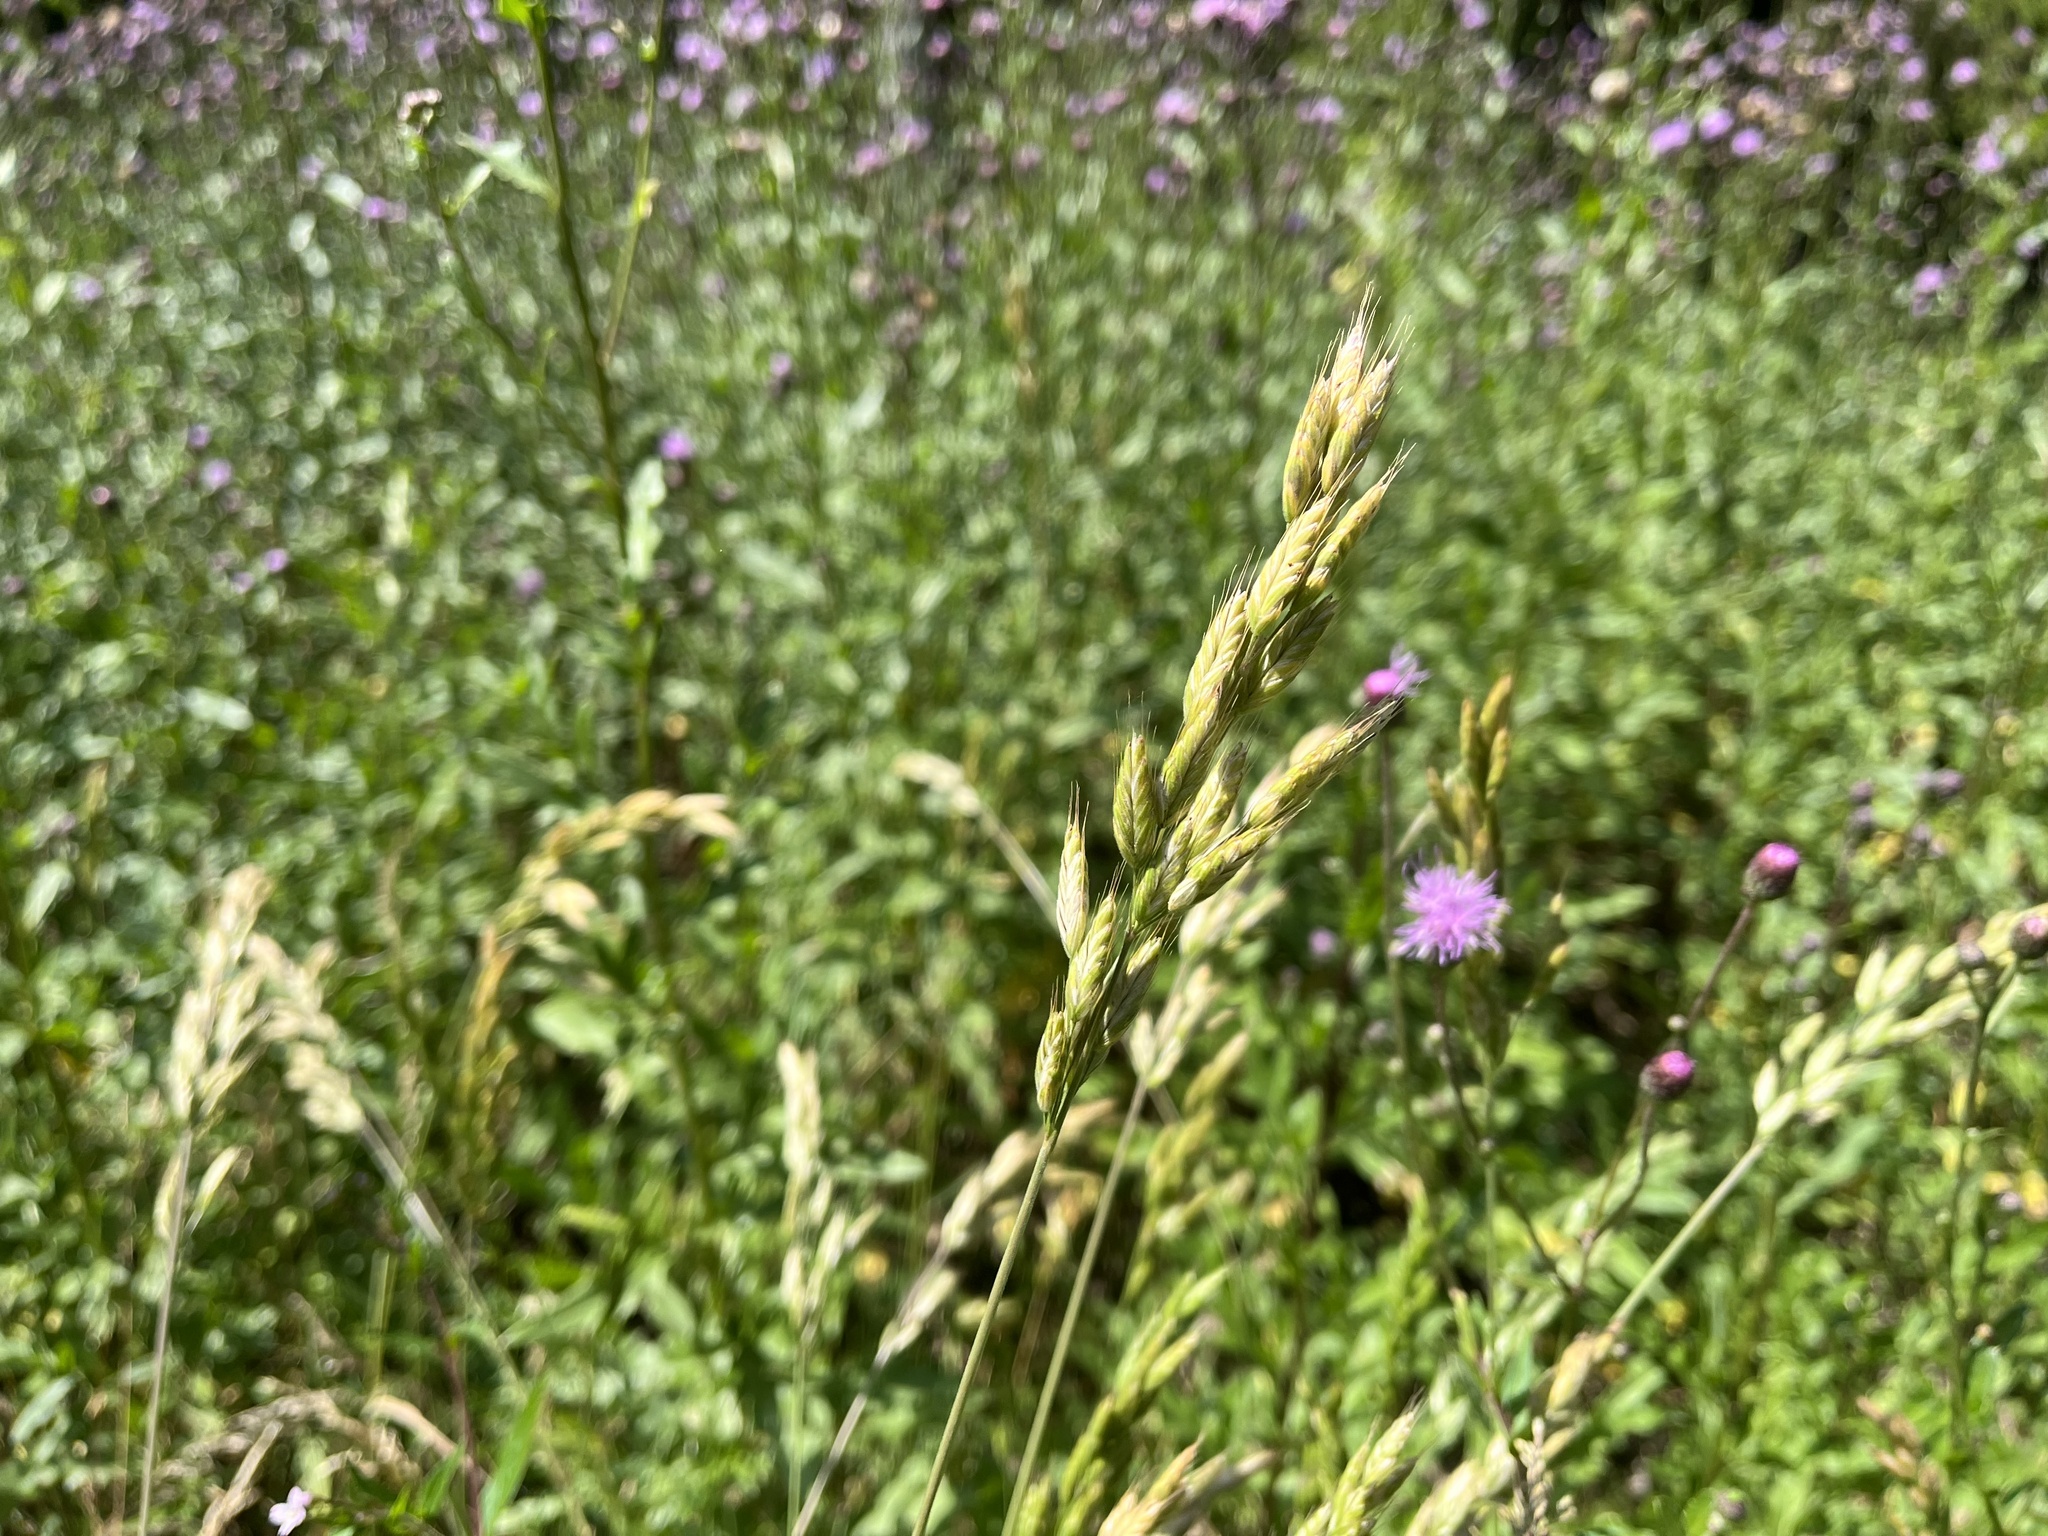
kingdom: Plantae
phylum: Tracheophyta
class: Liliopsida
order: Poales
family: Poaceae
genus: Bromus
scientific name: Bromus hordeaceus
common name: Soft brome
